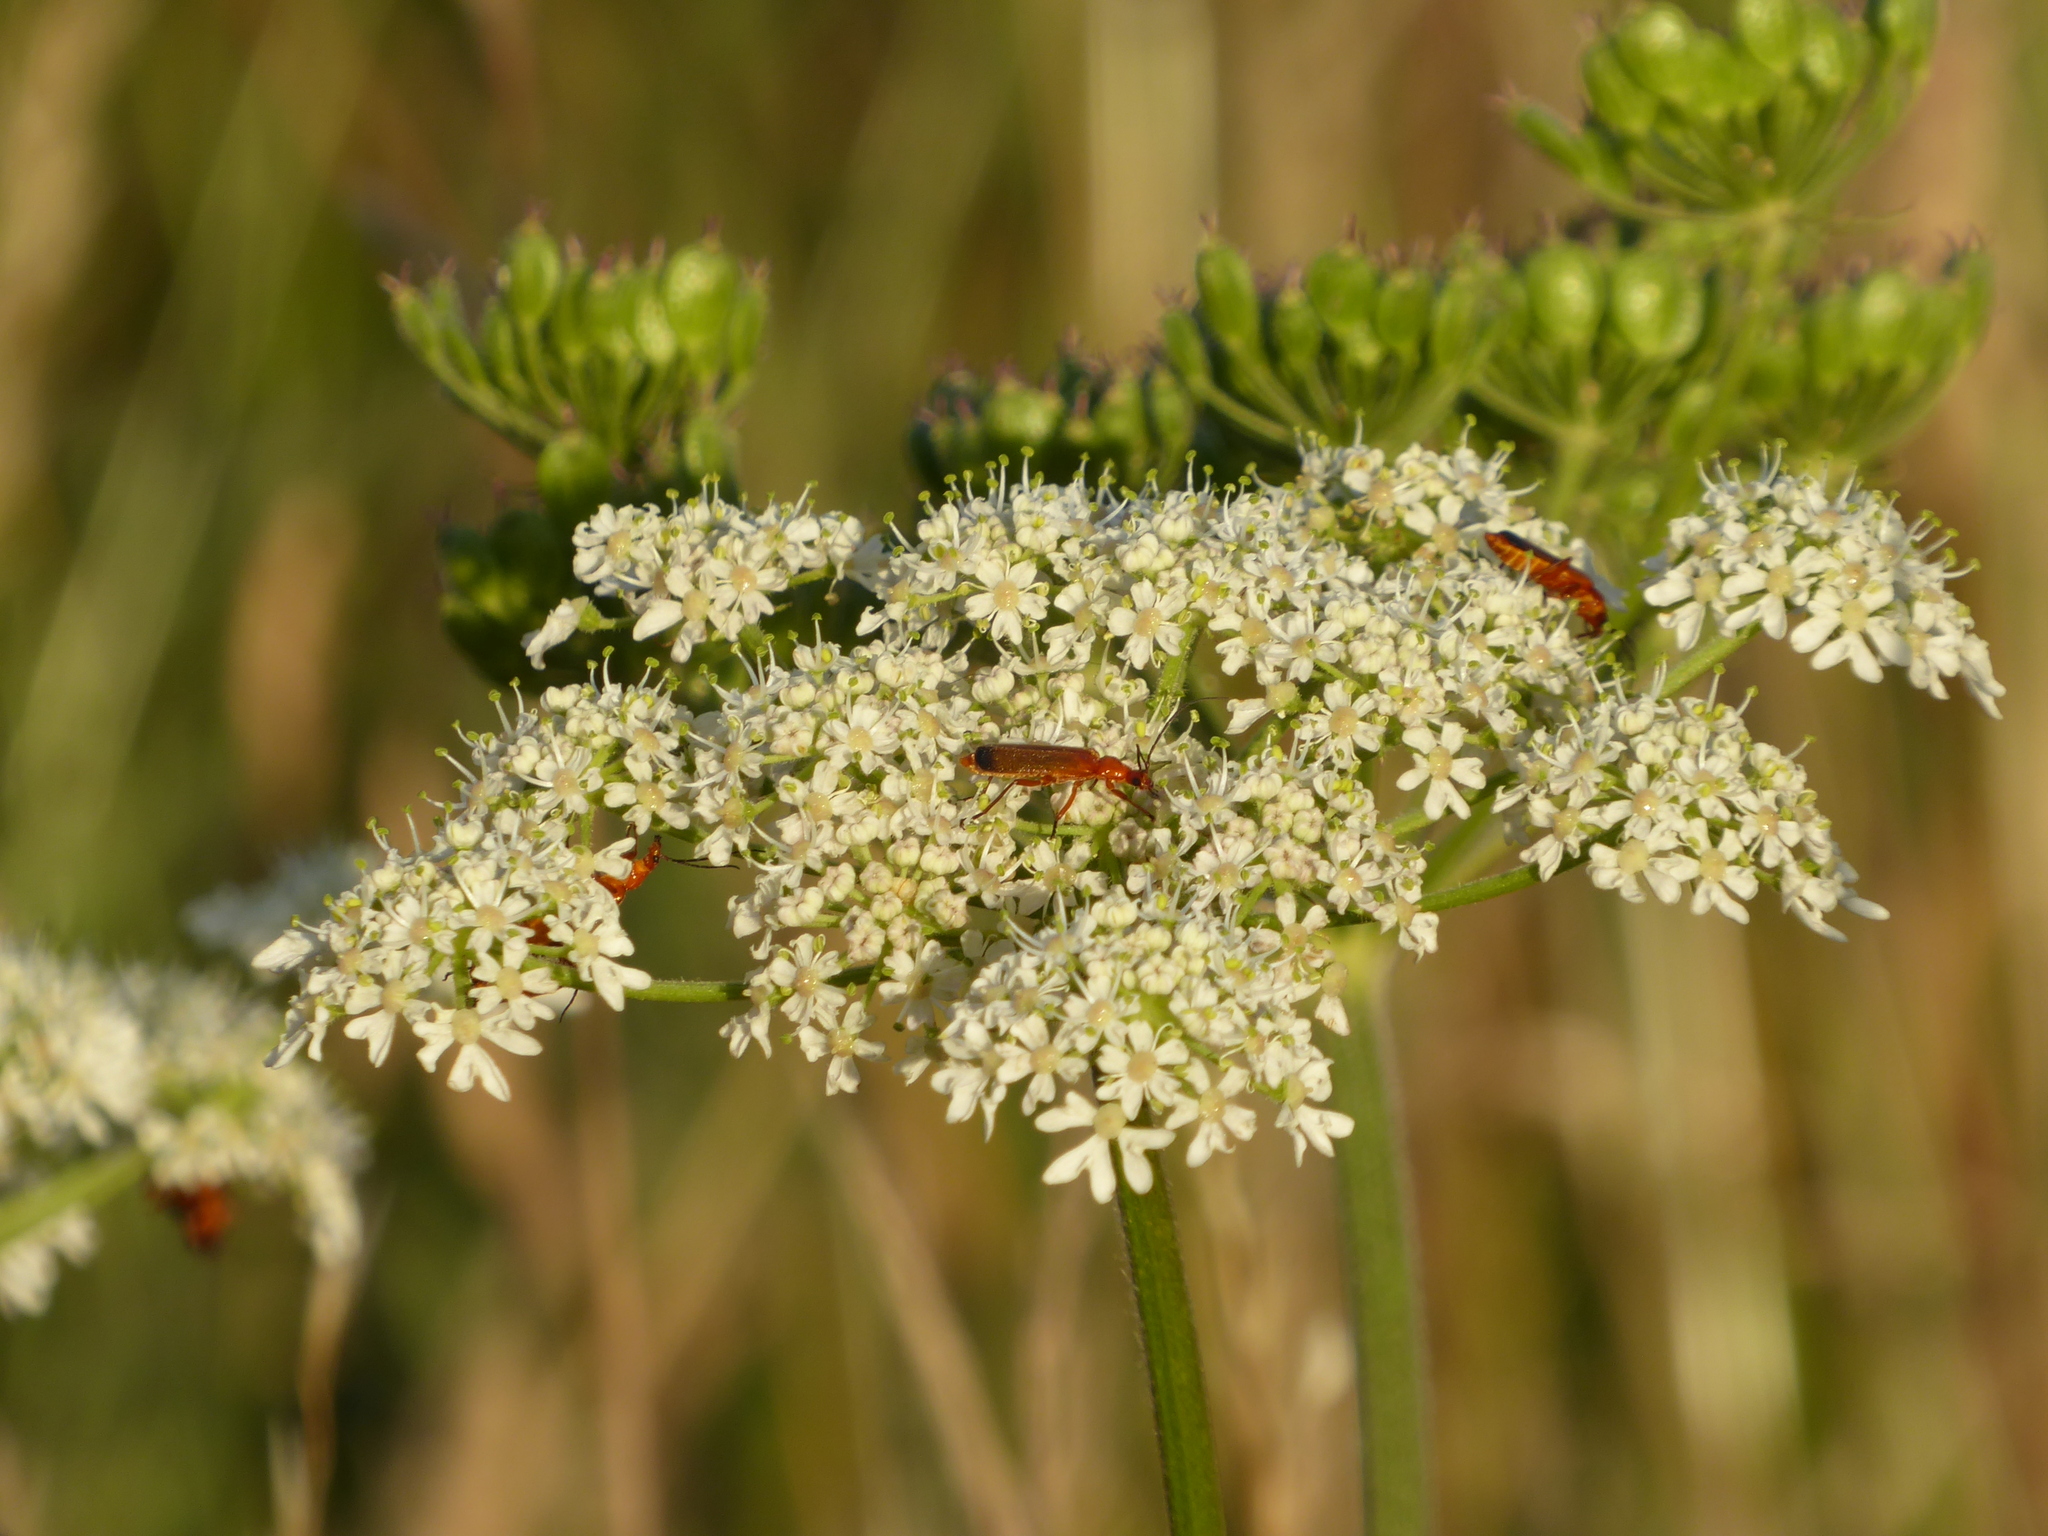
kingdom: Plantae
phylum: Tracheophyta
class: Magnoliopsida
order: Apiales
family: Apiaceae
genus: Heracleum
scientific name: Heracleum sphondylium
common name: Hogweed
